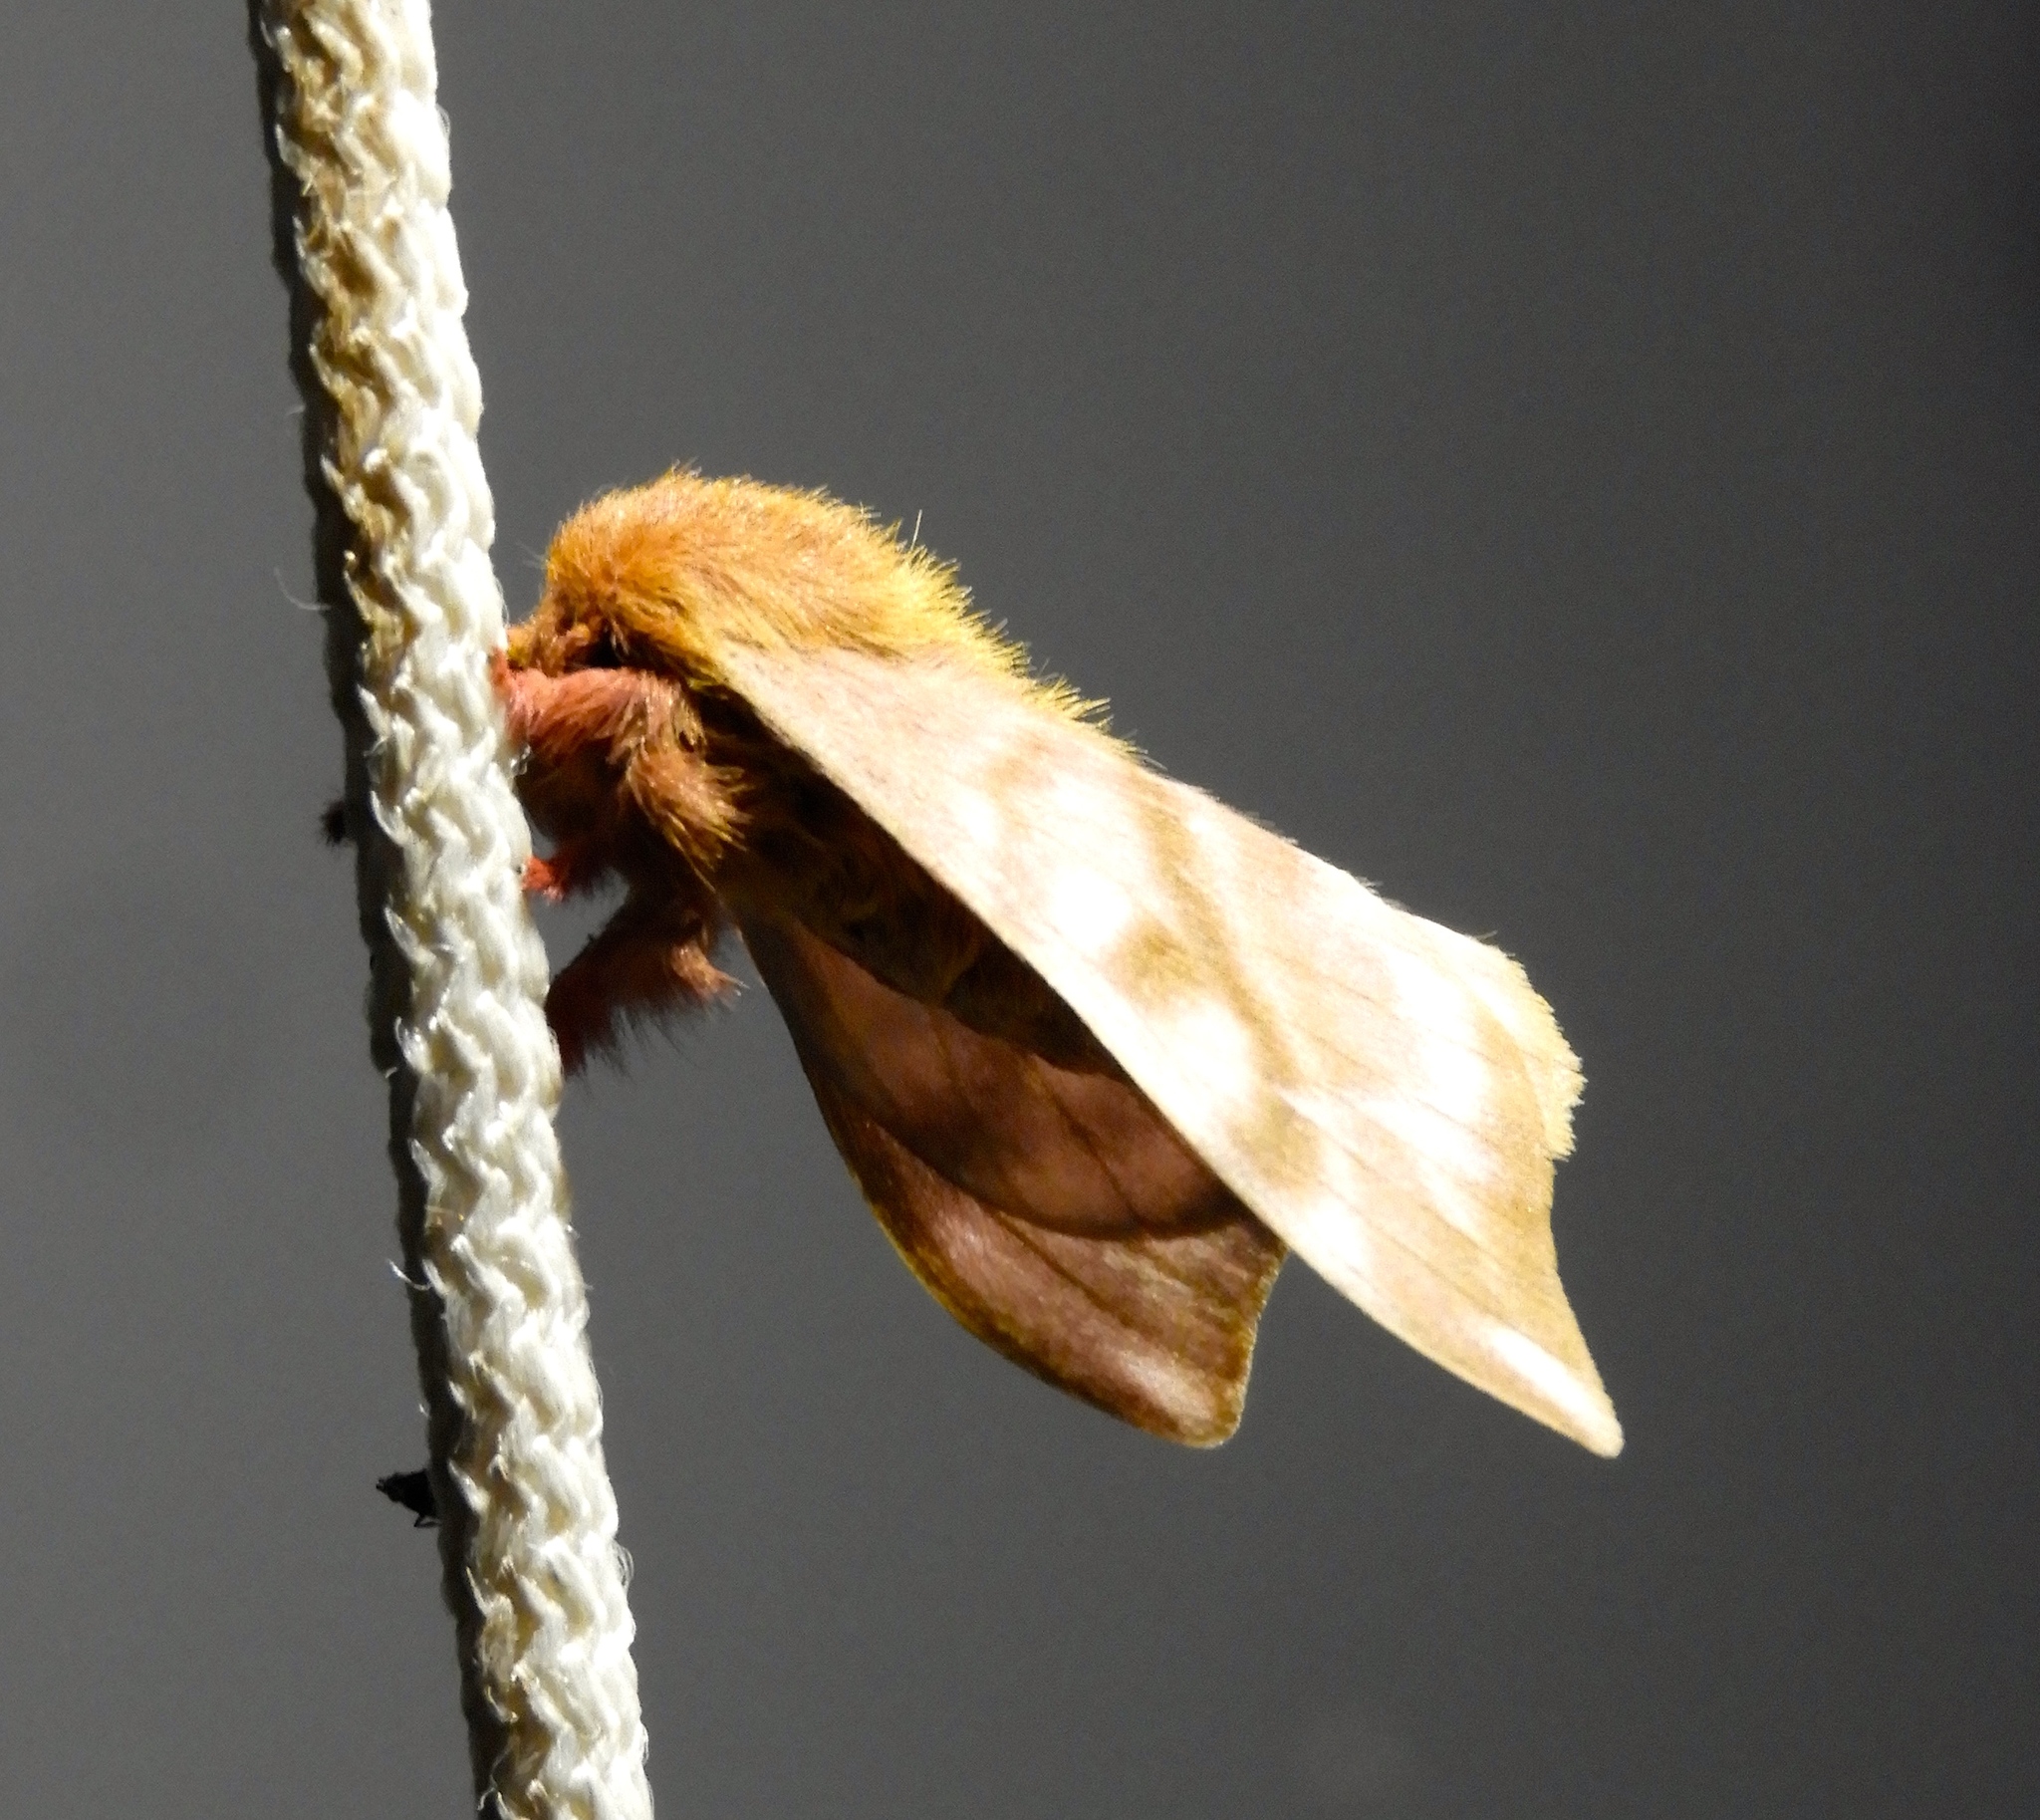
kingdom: Animalia
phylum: Arthropoda
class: Insecta
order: Lepidoptera
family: Saturniidae
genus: Hylesia
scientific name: Hylesia coinopus
